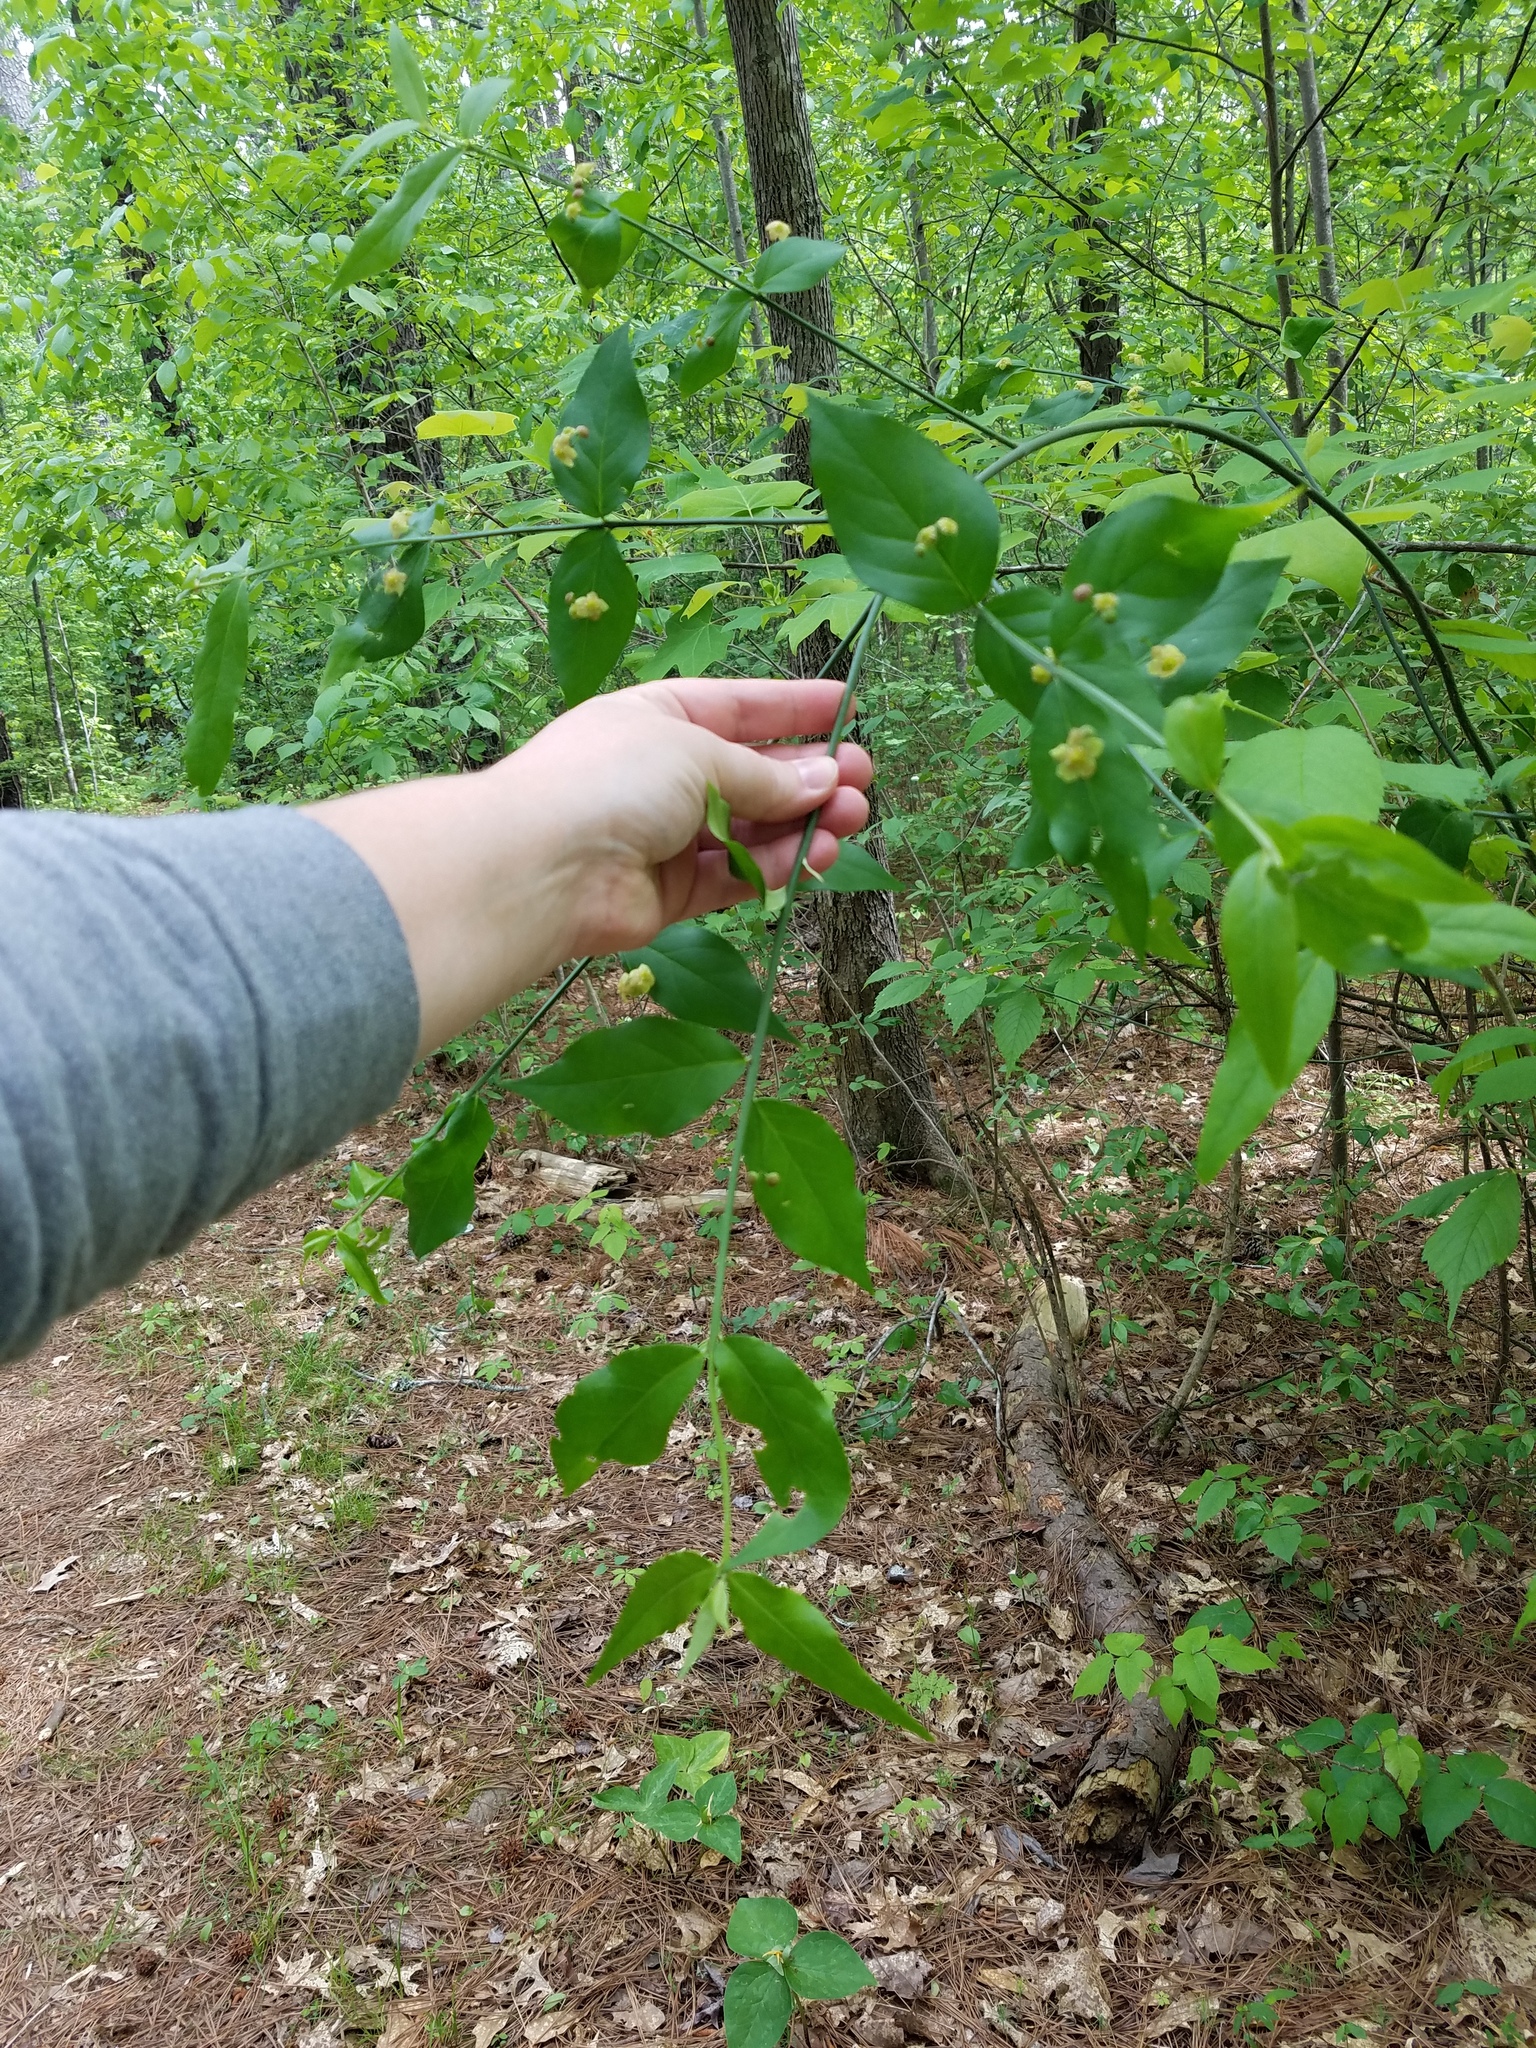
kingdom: Plantae
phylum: Tracheophyta
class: Magnoliopsida
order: Celastrales
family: Celastraceae
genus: Euonymus
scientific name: Euonymus americanus
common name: Bursting-heart
